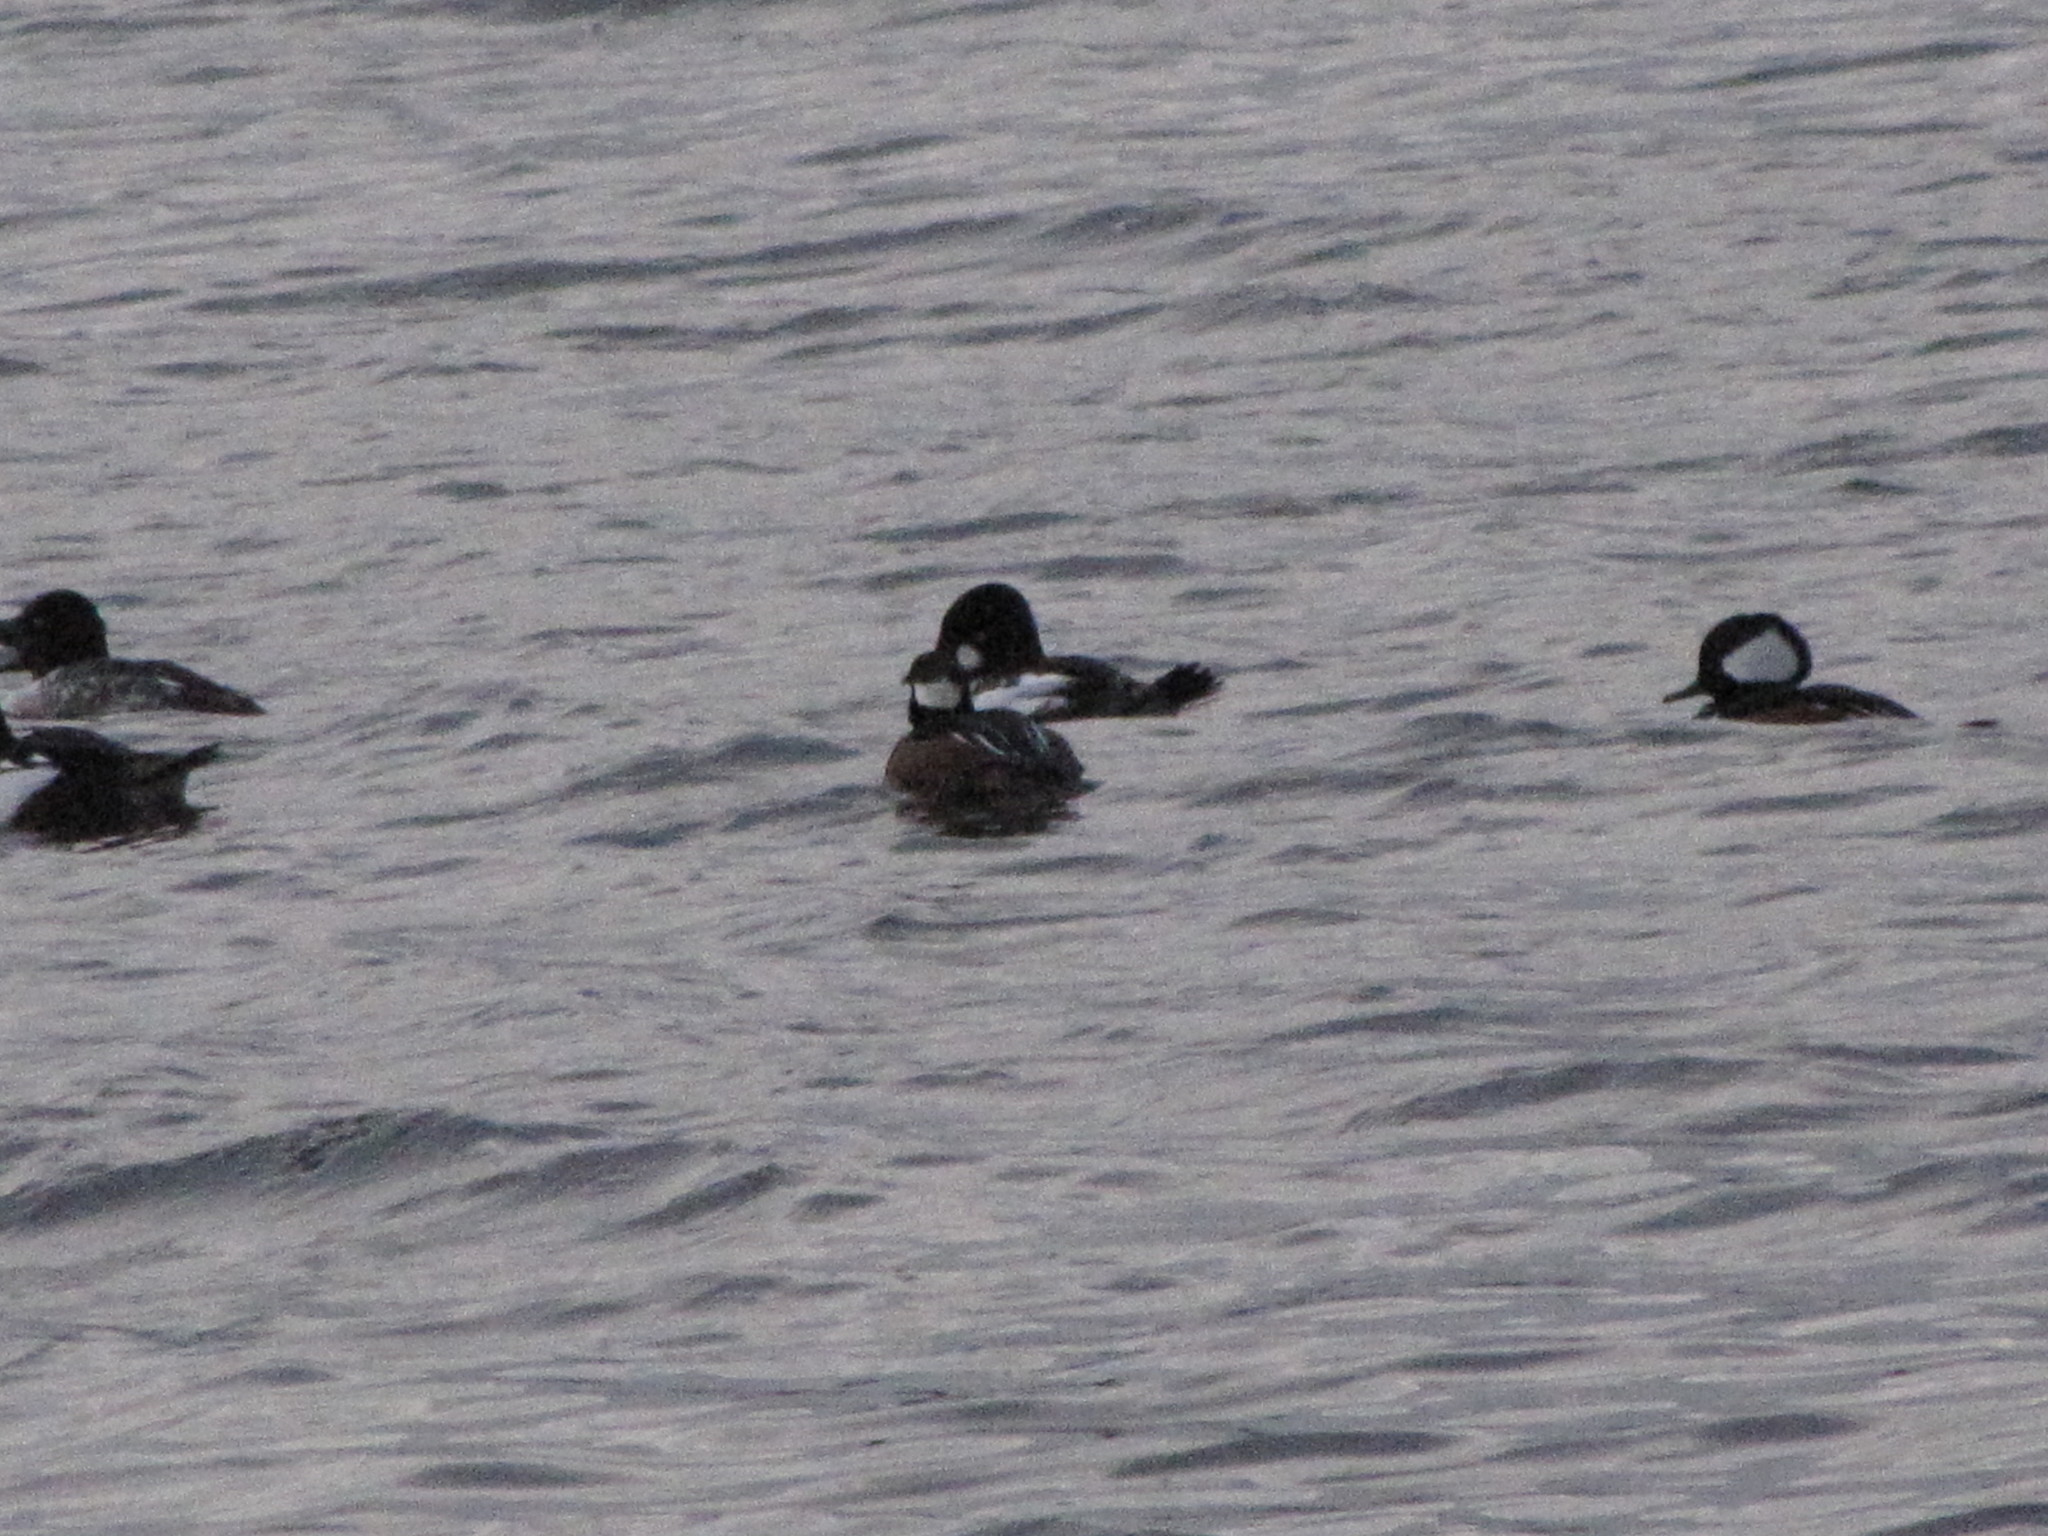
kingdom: Animalia
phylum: Chordata
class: Aves
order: Anseriformes
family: Anatidae
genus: Lophodytes
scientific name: Lophodytes cucullatus
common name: Hooded merganser
